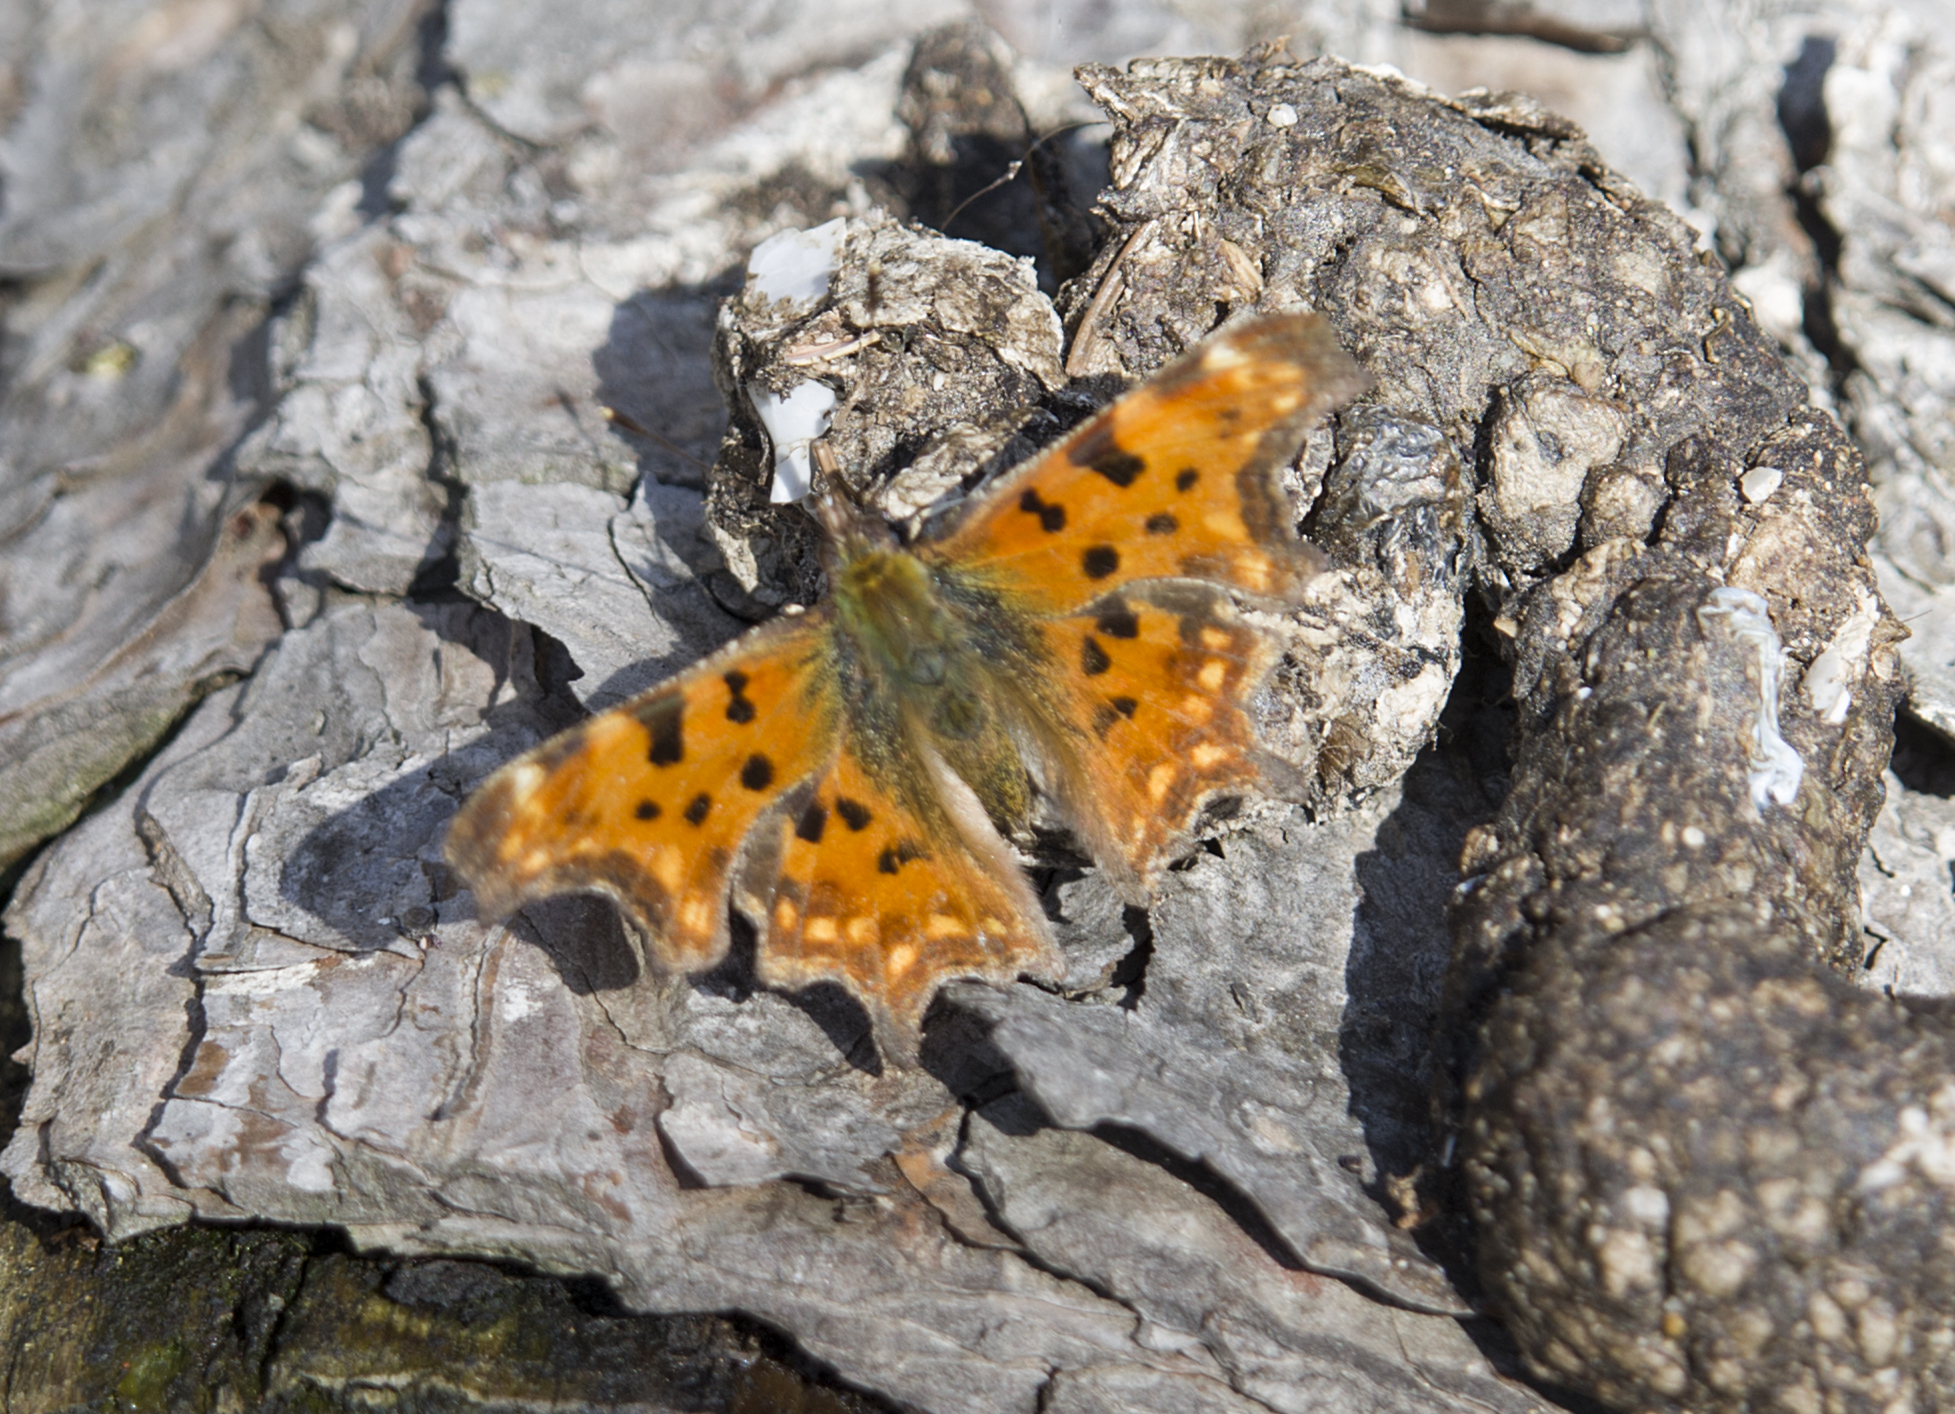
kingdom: Animalia
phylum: Arthropoda
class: Insecta
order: Lepidoptera
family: Nymphalidae
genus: Polygonia
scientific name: Polygonia c-album
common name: Comma
